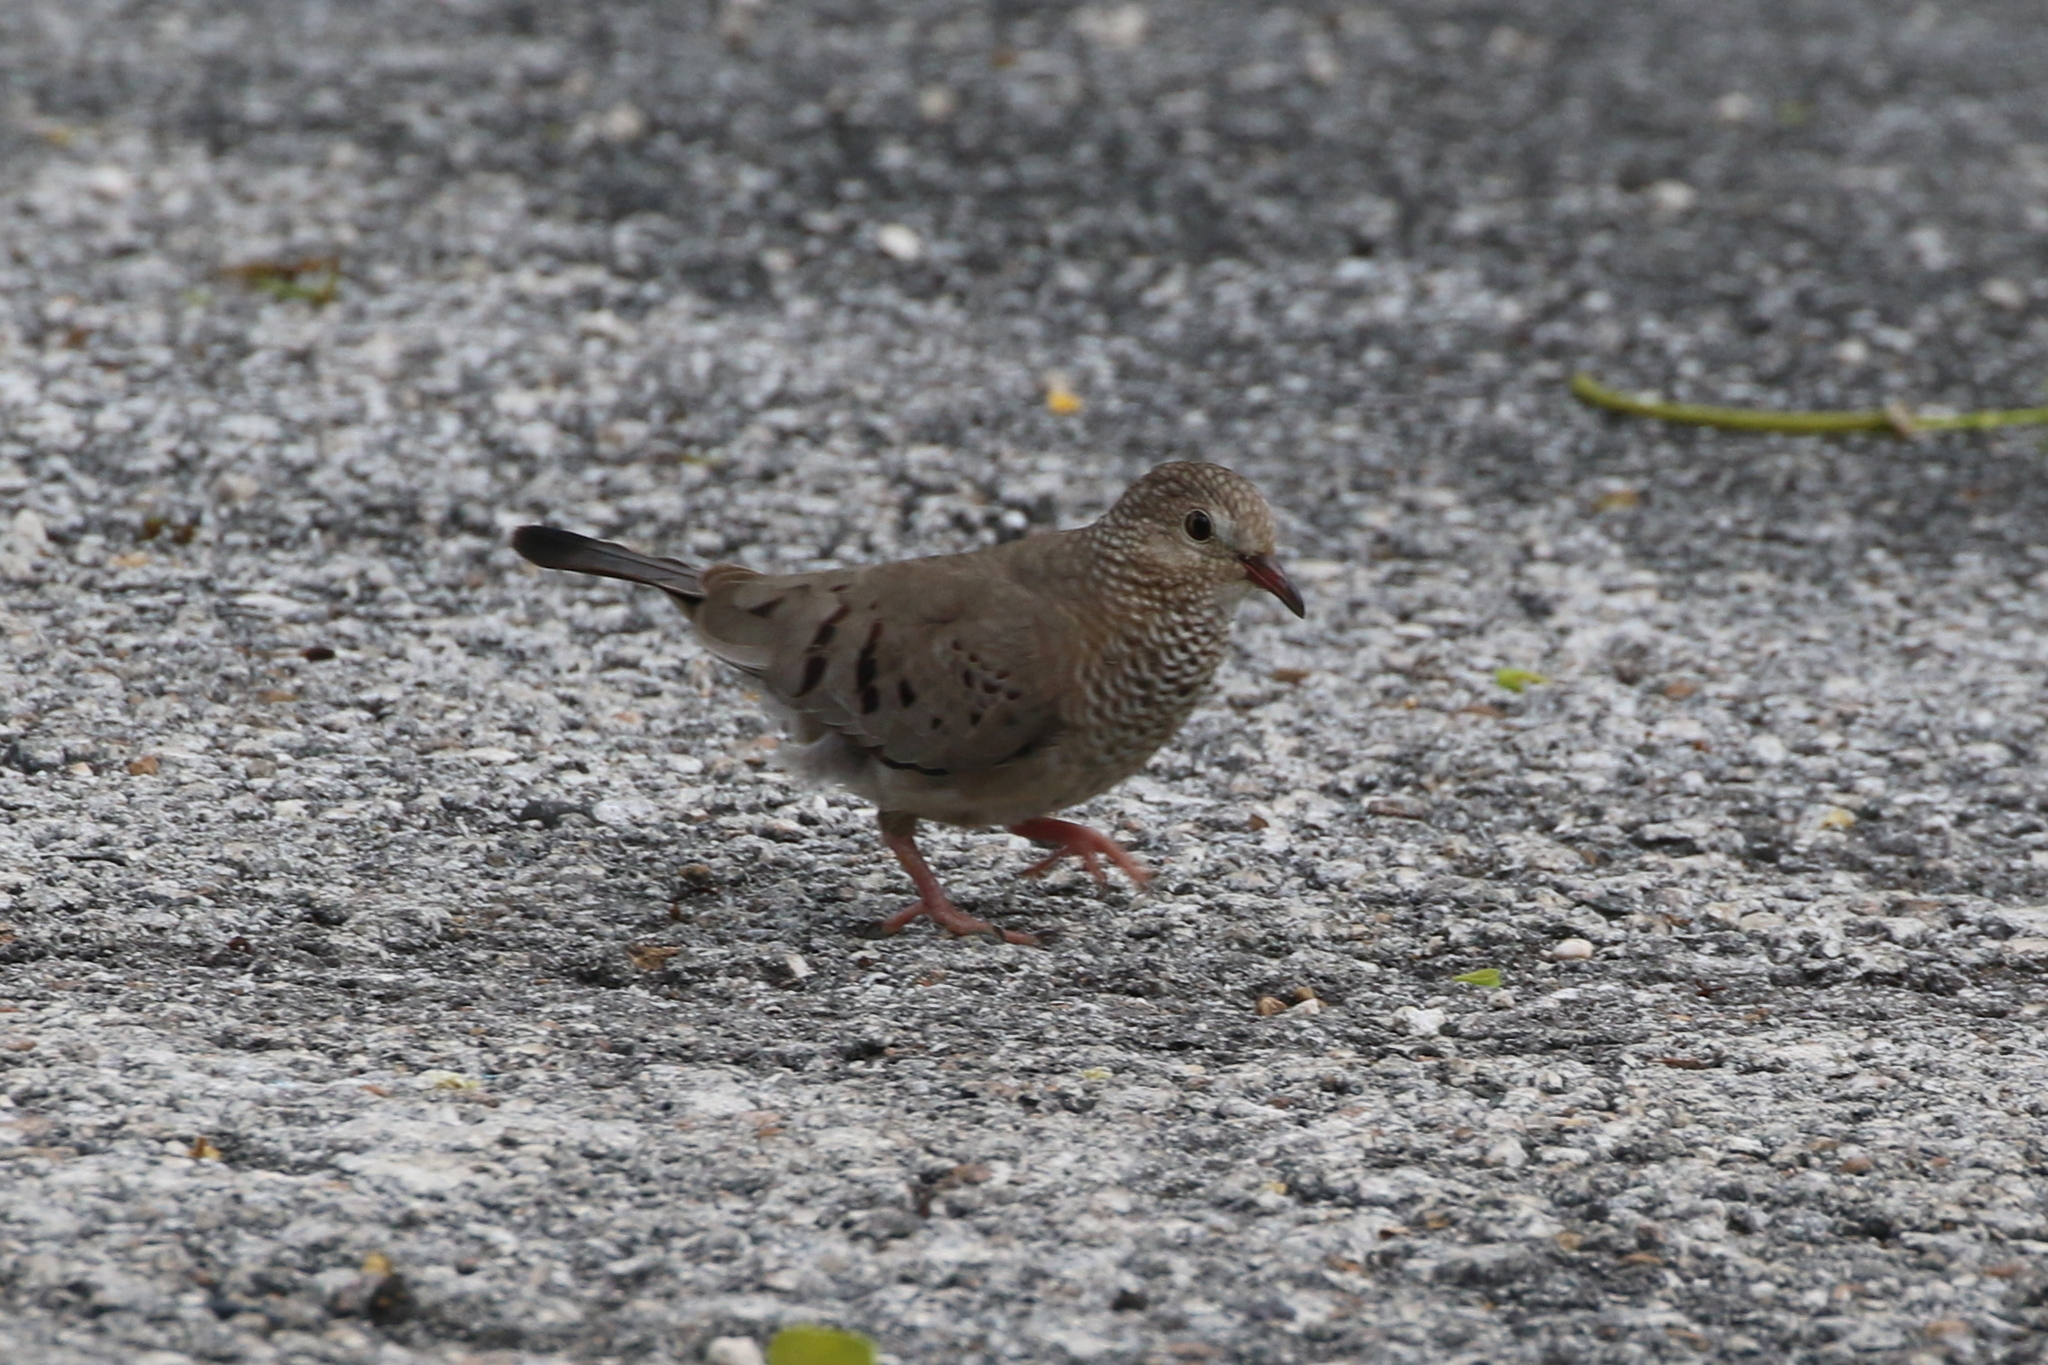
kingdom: Animalia
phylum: Chordata
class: Aves
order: Columbiformes
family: Columbidae
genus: Columbina
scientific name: Columbina passerina
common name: Common ground-dove
